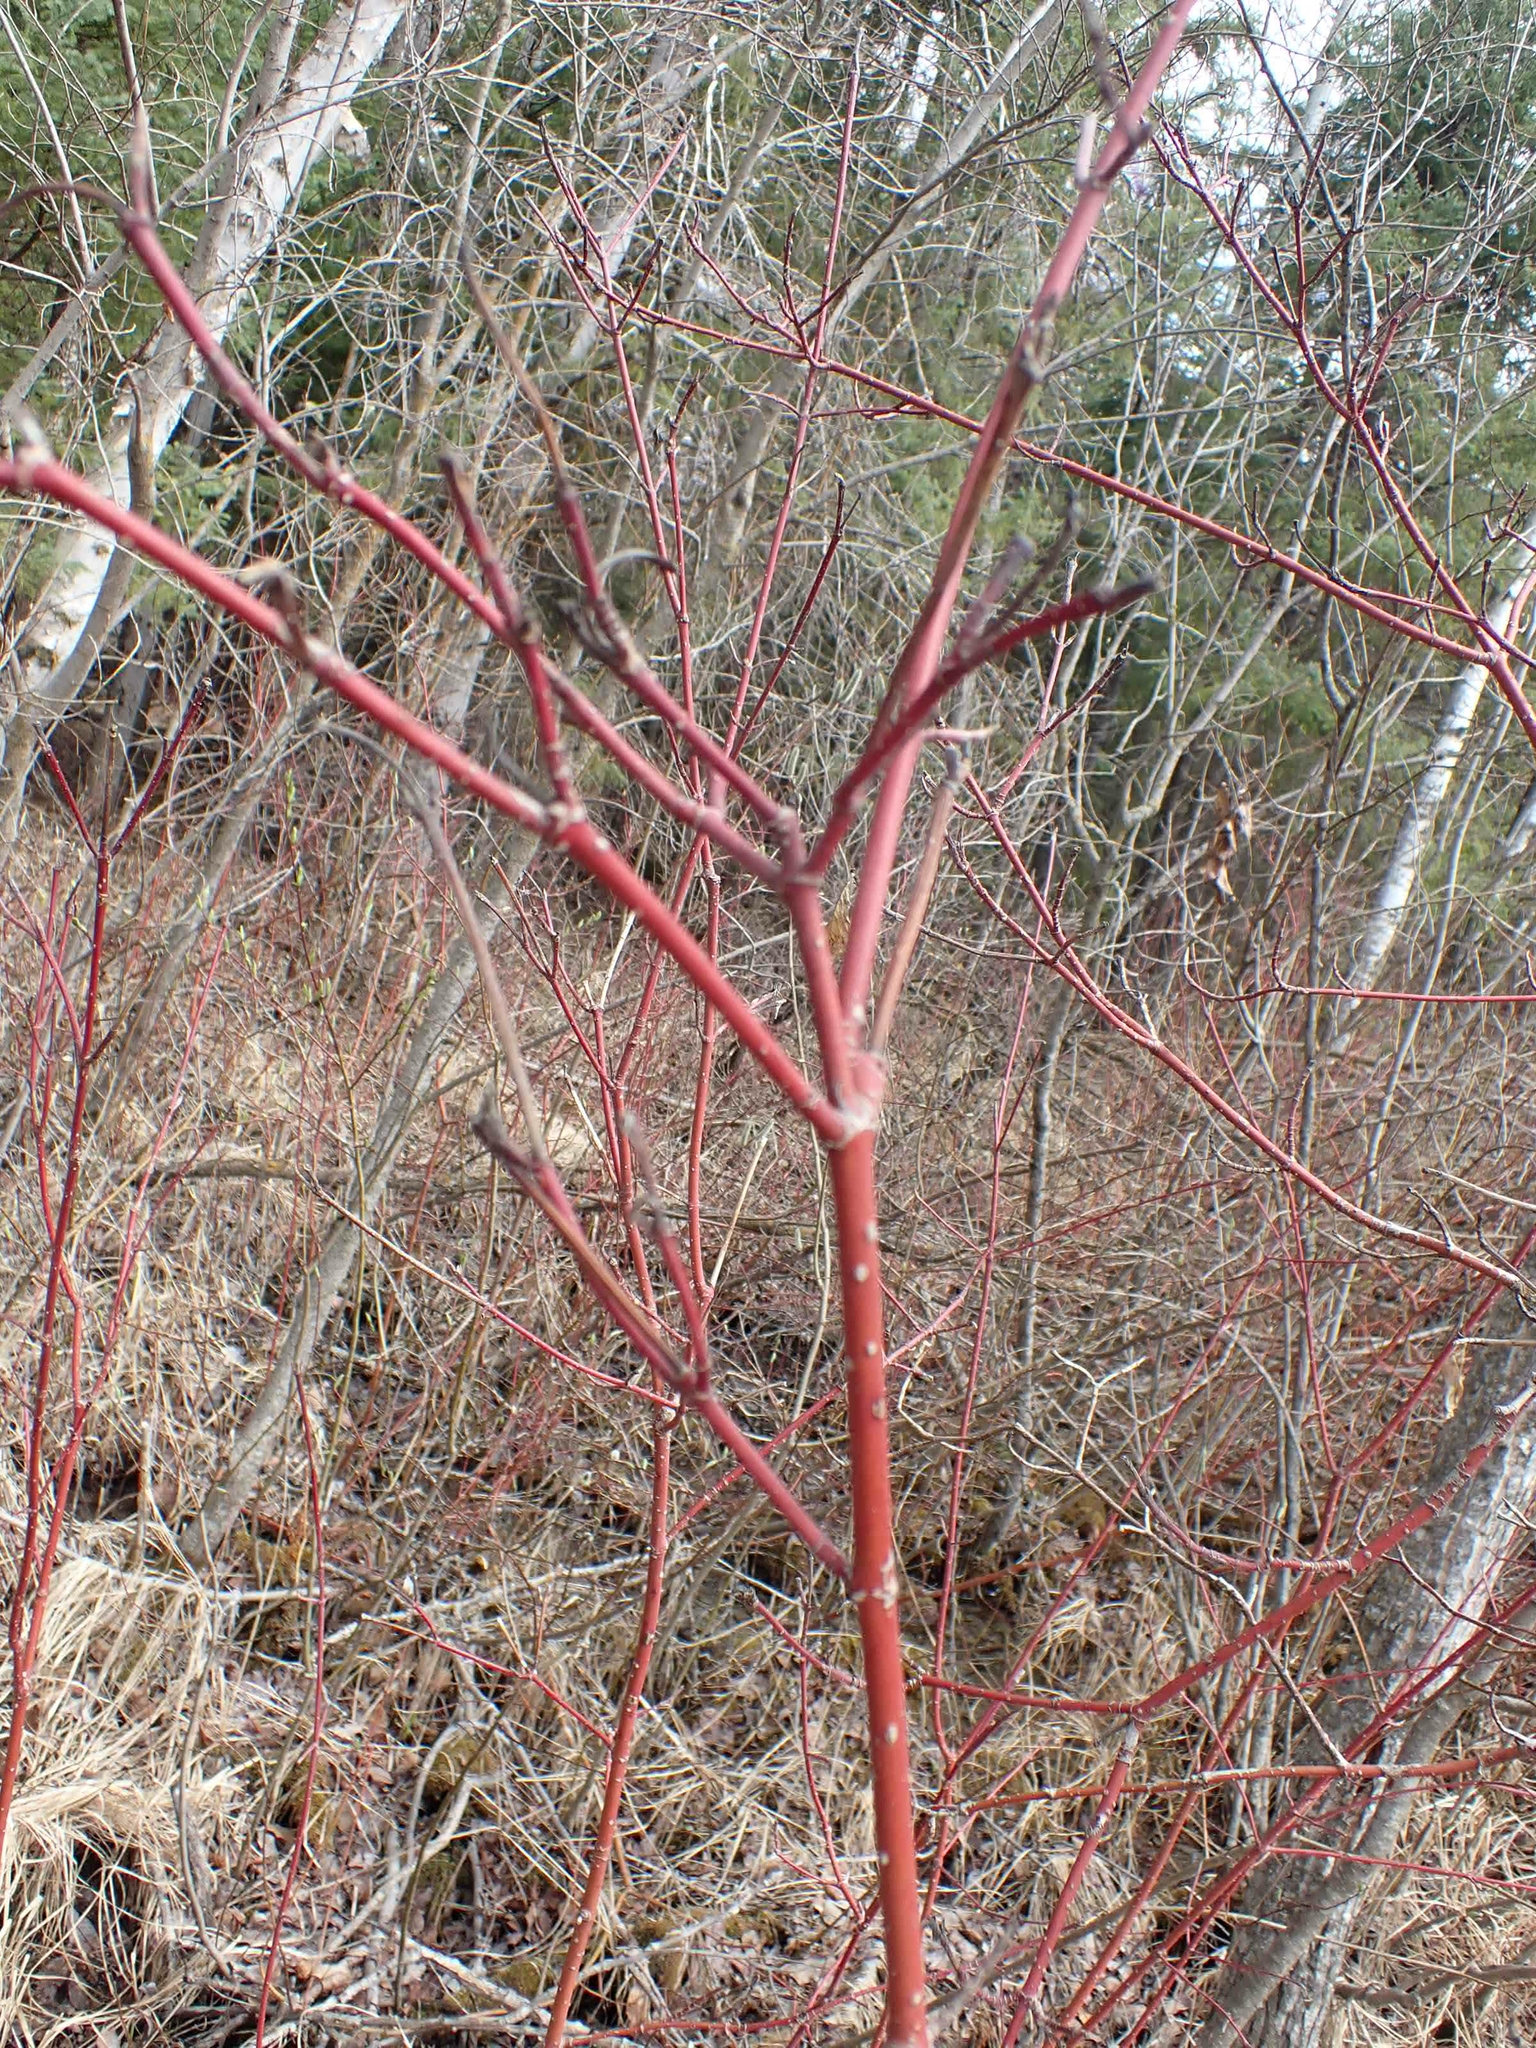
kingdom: Plantae
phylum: Tracheophyta
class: Magnoliopsida
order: Cornales
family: Cornaceae
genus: Cornus
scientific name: Cornus sericea
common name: Red-osier dogwood
